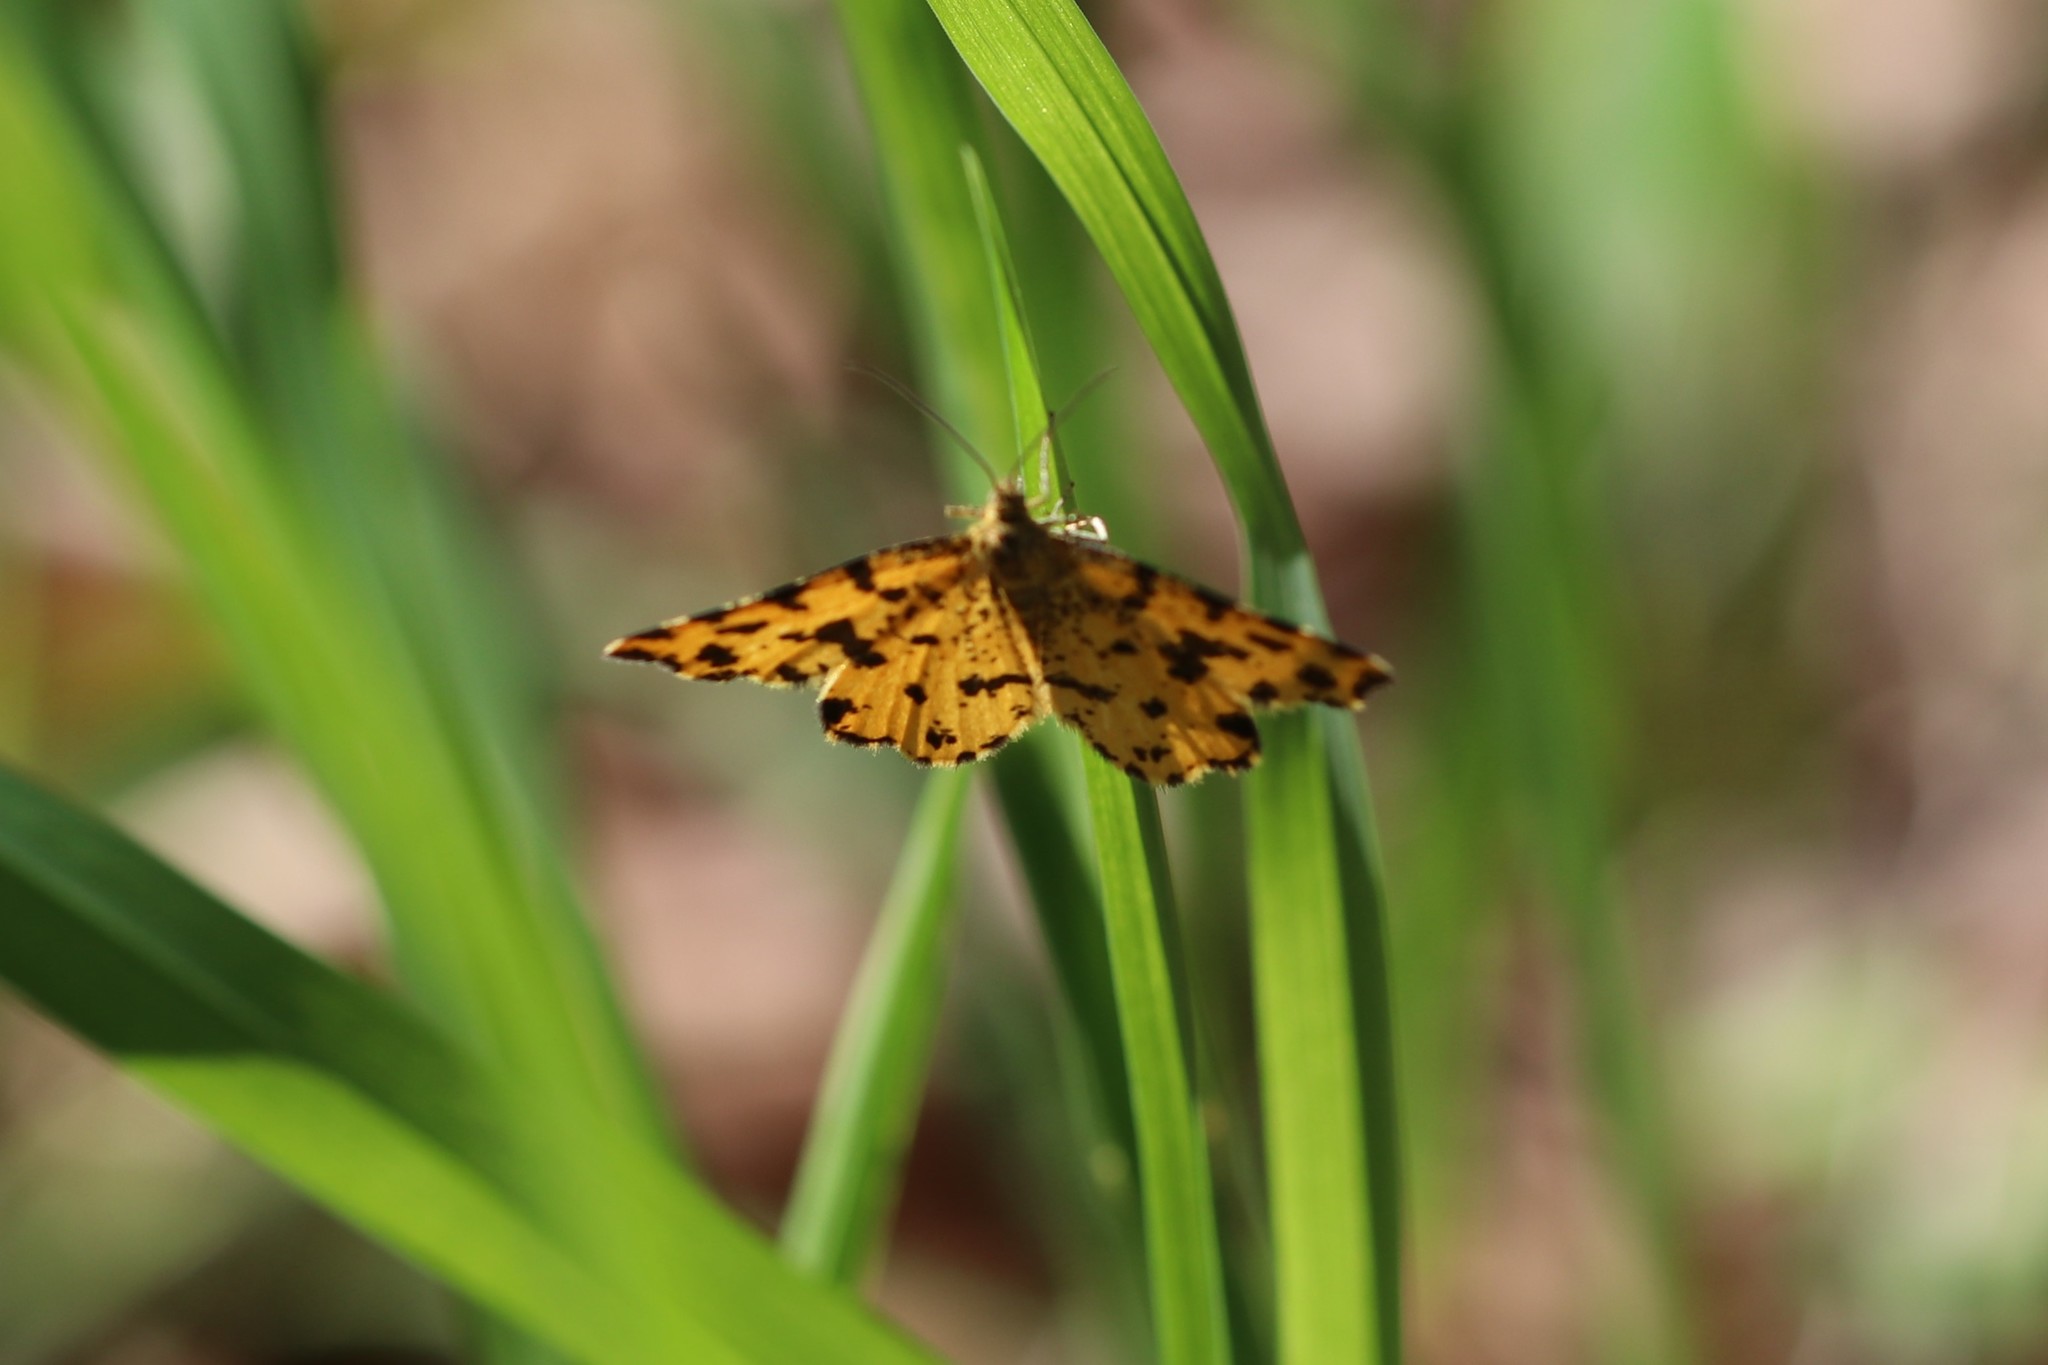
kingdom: Animalia
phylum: Arthropoda
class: Insecta
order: Lepidoptera
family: Geometridae
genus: Pseudopanthera
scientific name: Pseudopanthera macularia
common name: Speckled yellow
